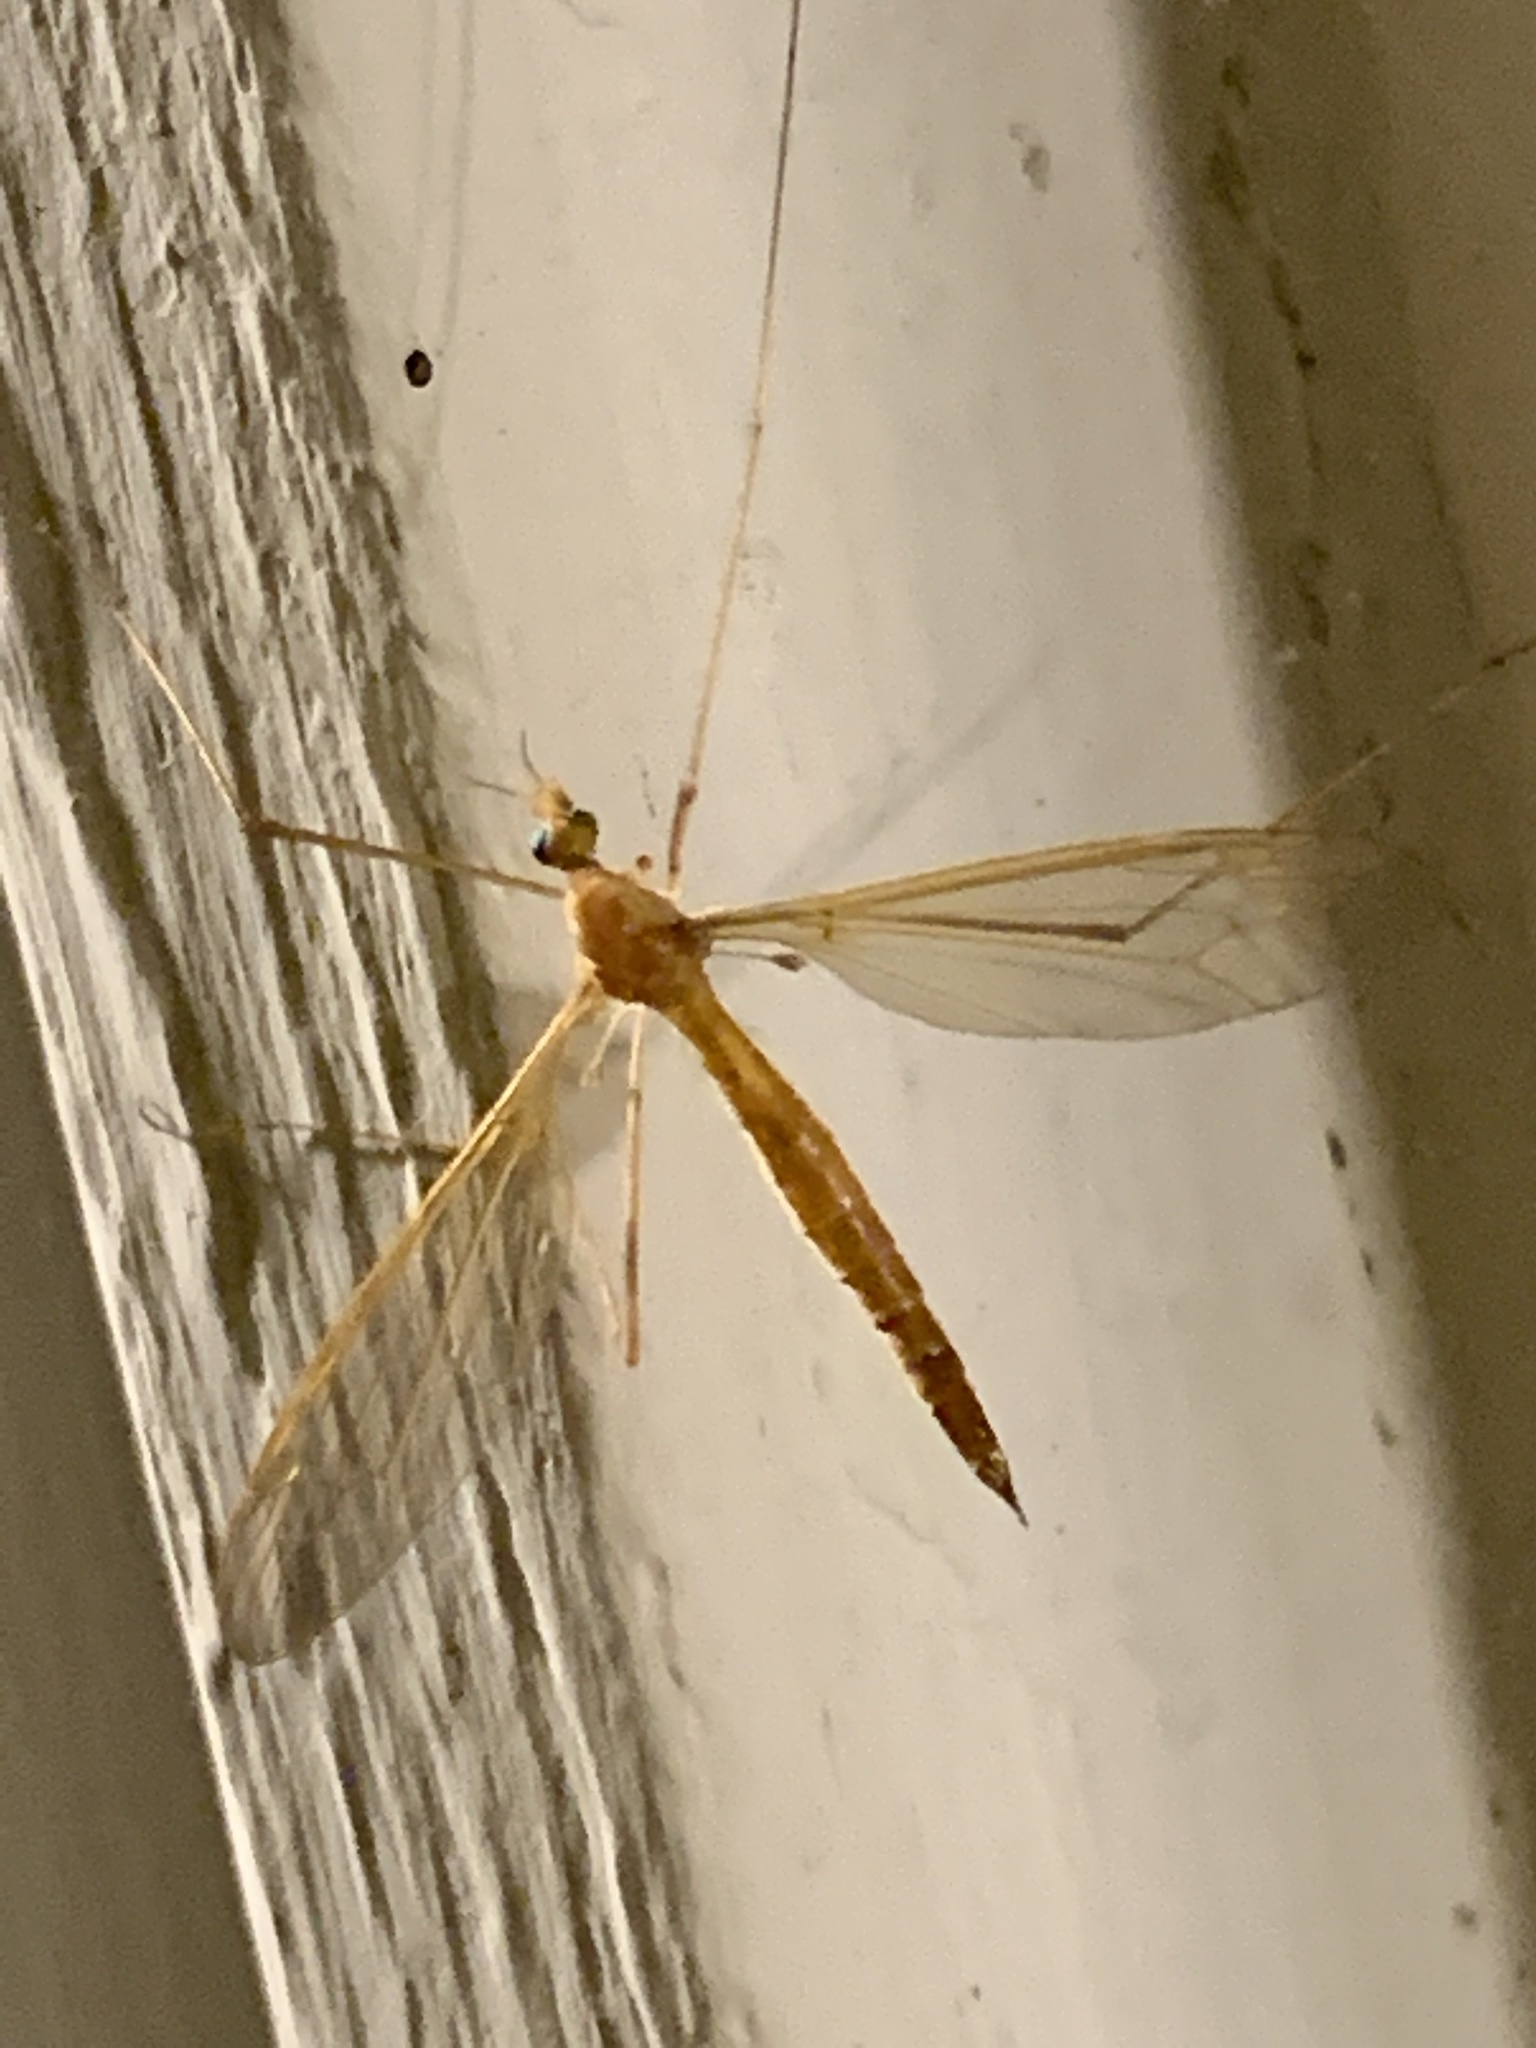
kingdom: Animalia
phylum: Arthropoda
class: Insecta
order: Diptera
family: Tipulidae
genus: Nephrotoma
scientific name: Nephrotoma tenuis
